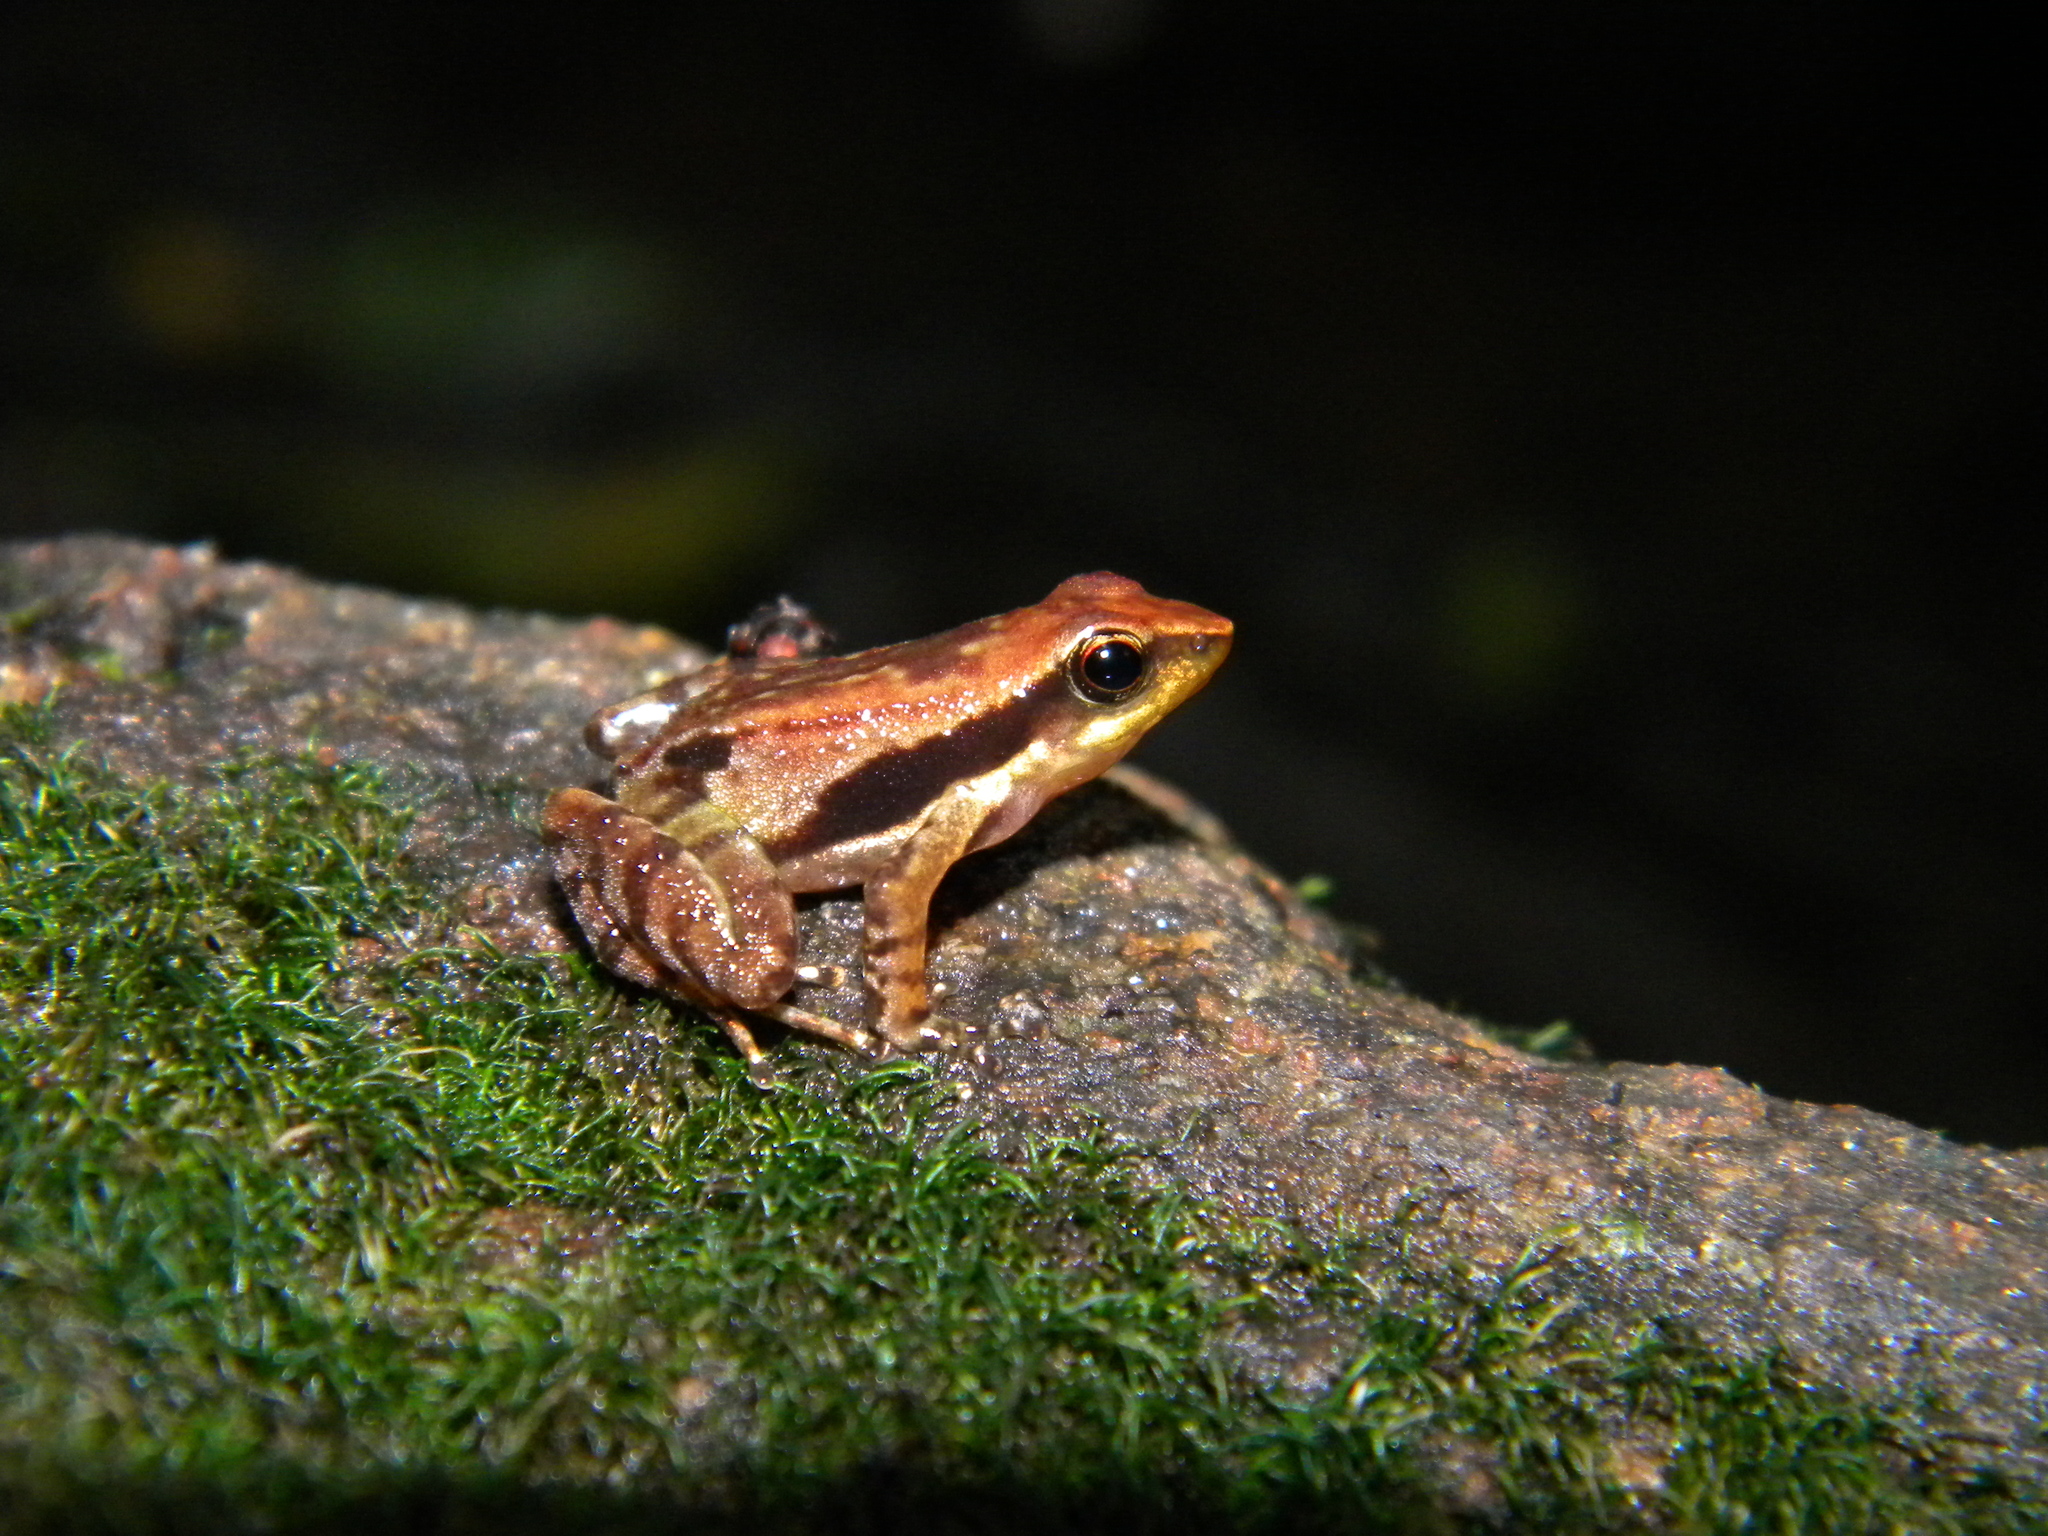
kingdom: Animalia
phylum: Chordata
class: Amphibia
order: Anura
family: Micrixalidae
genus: Micrixalus
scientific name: Micrixalus sali
